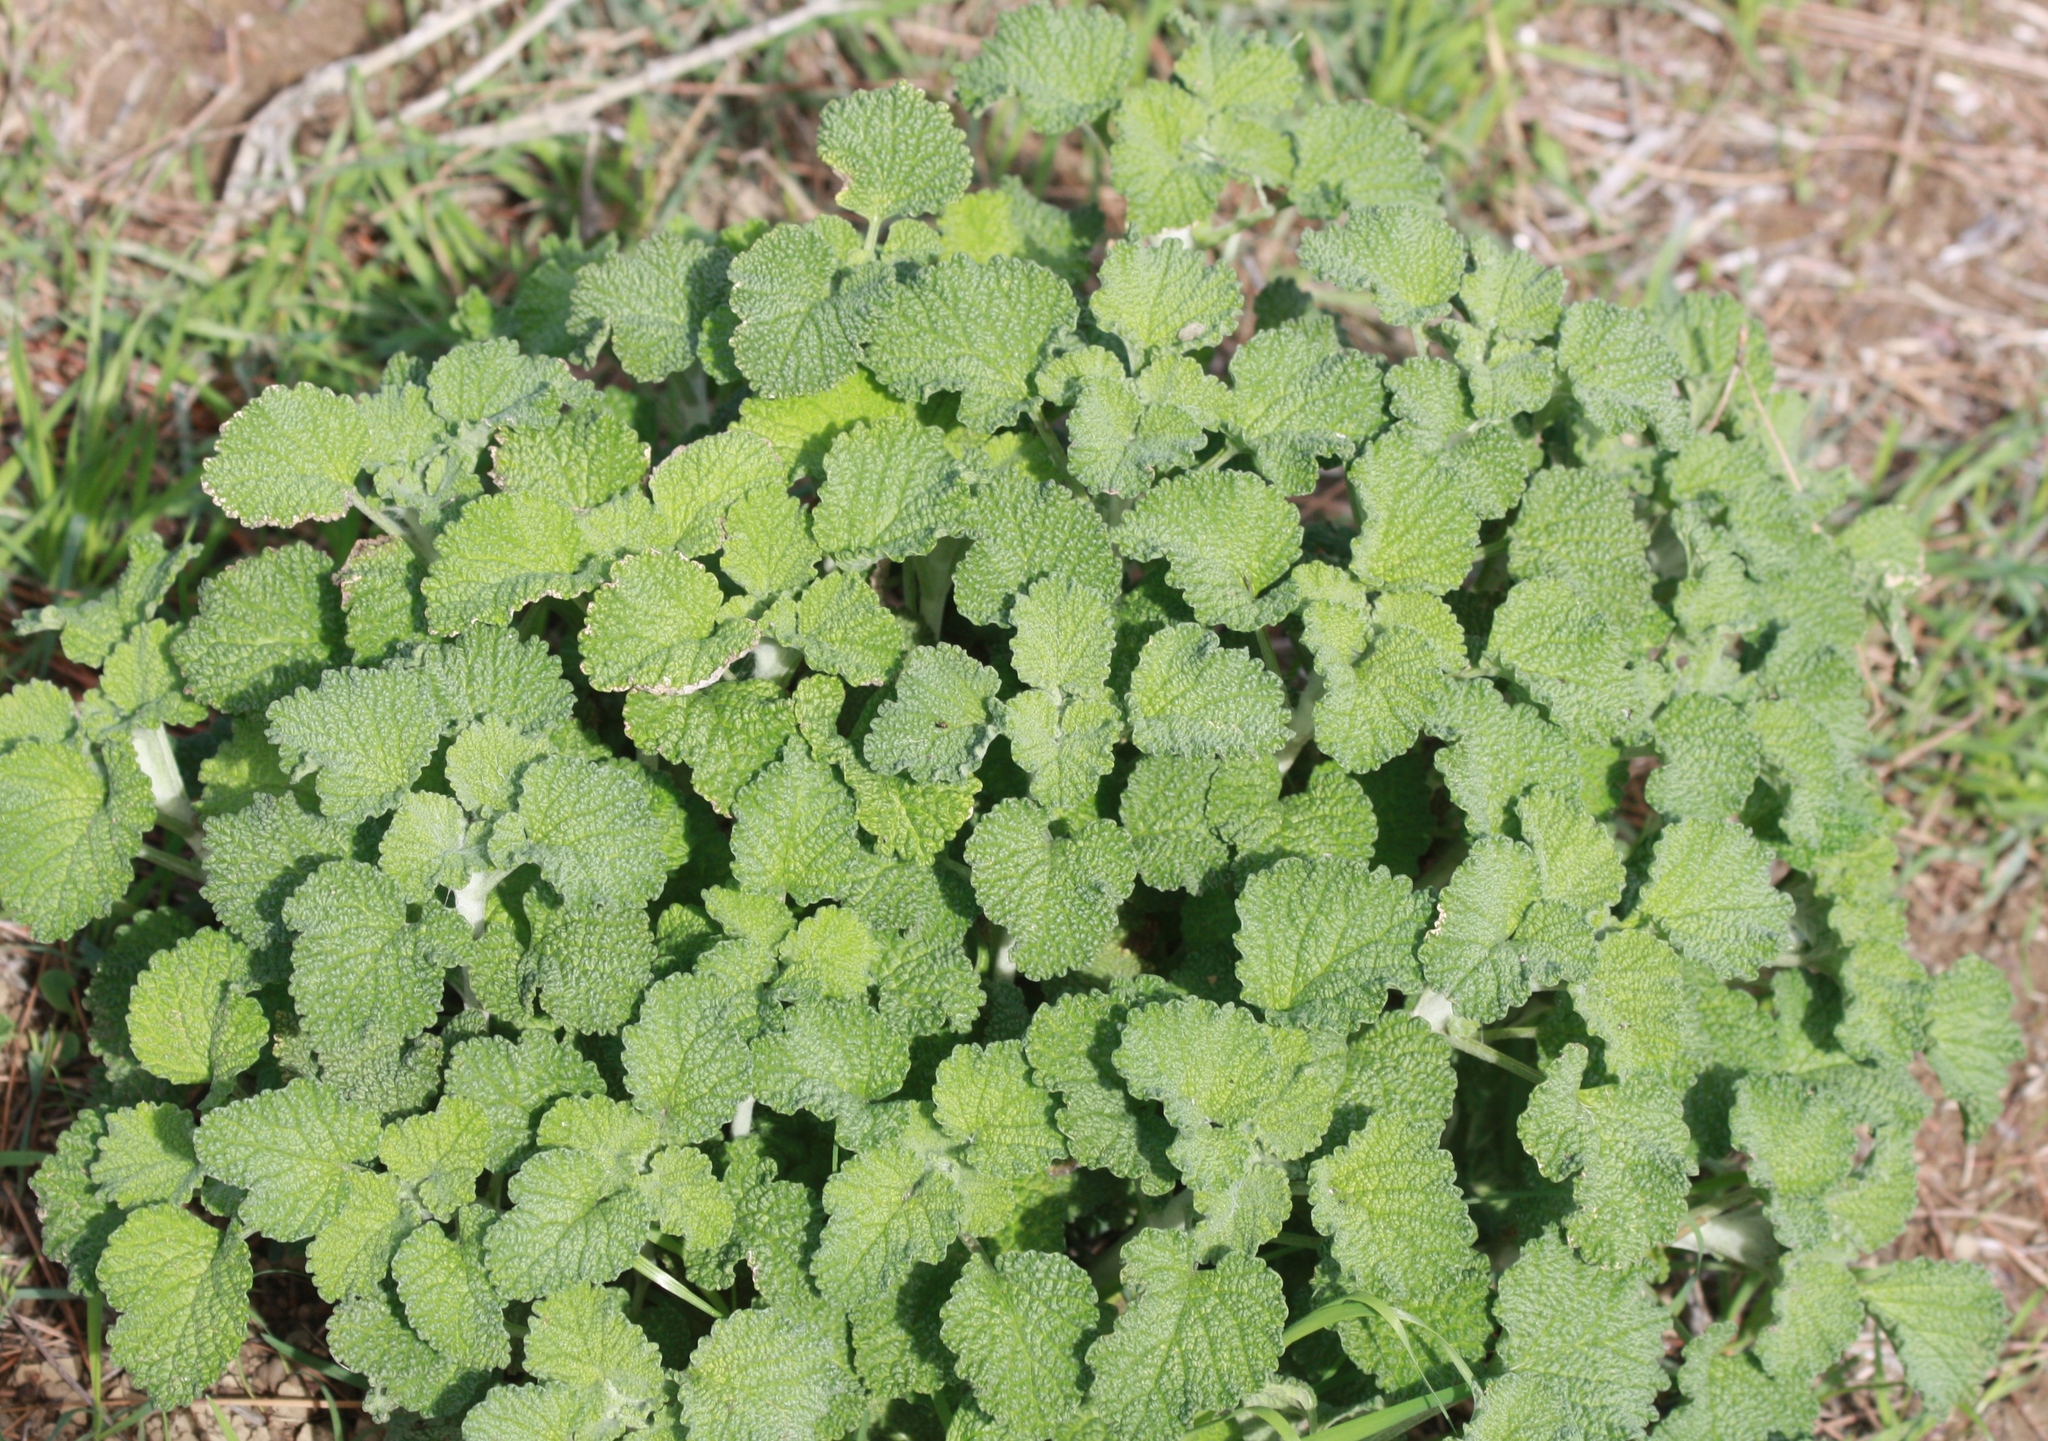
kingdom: Plantae
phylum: Tracheophyta
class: Magnoliopsida
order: Lamiales
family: Lamiaceae
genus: Marrubium
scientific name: Marrubium vulgare
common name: Horehound
